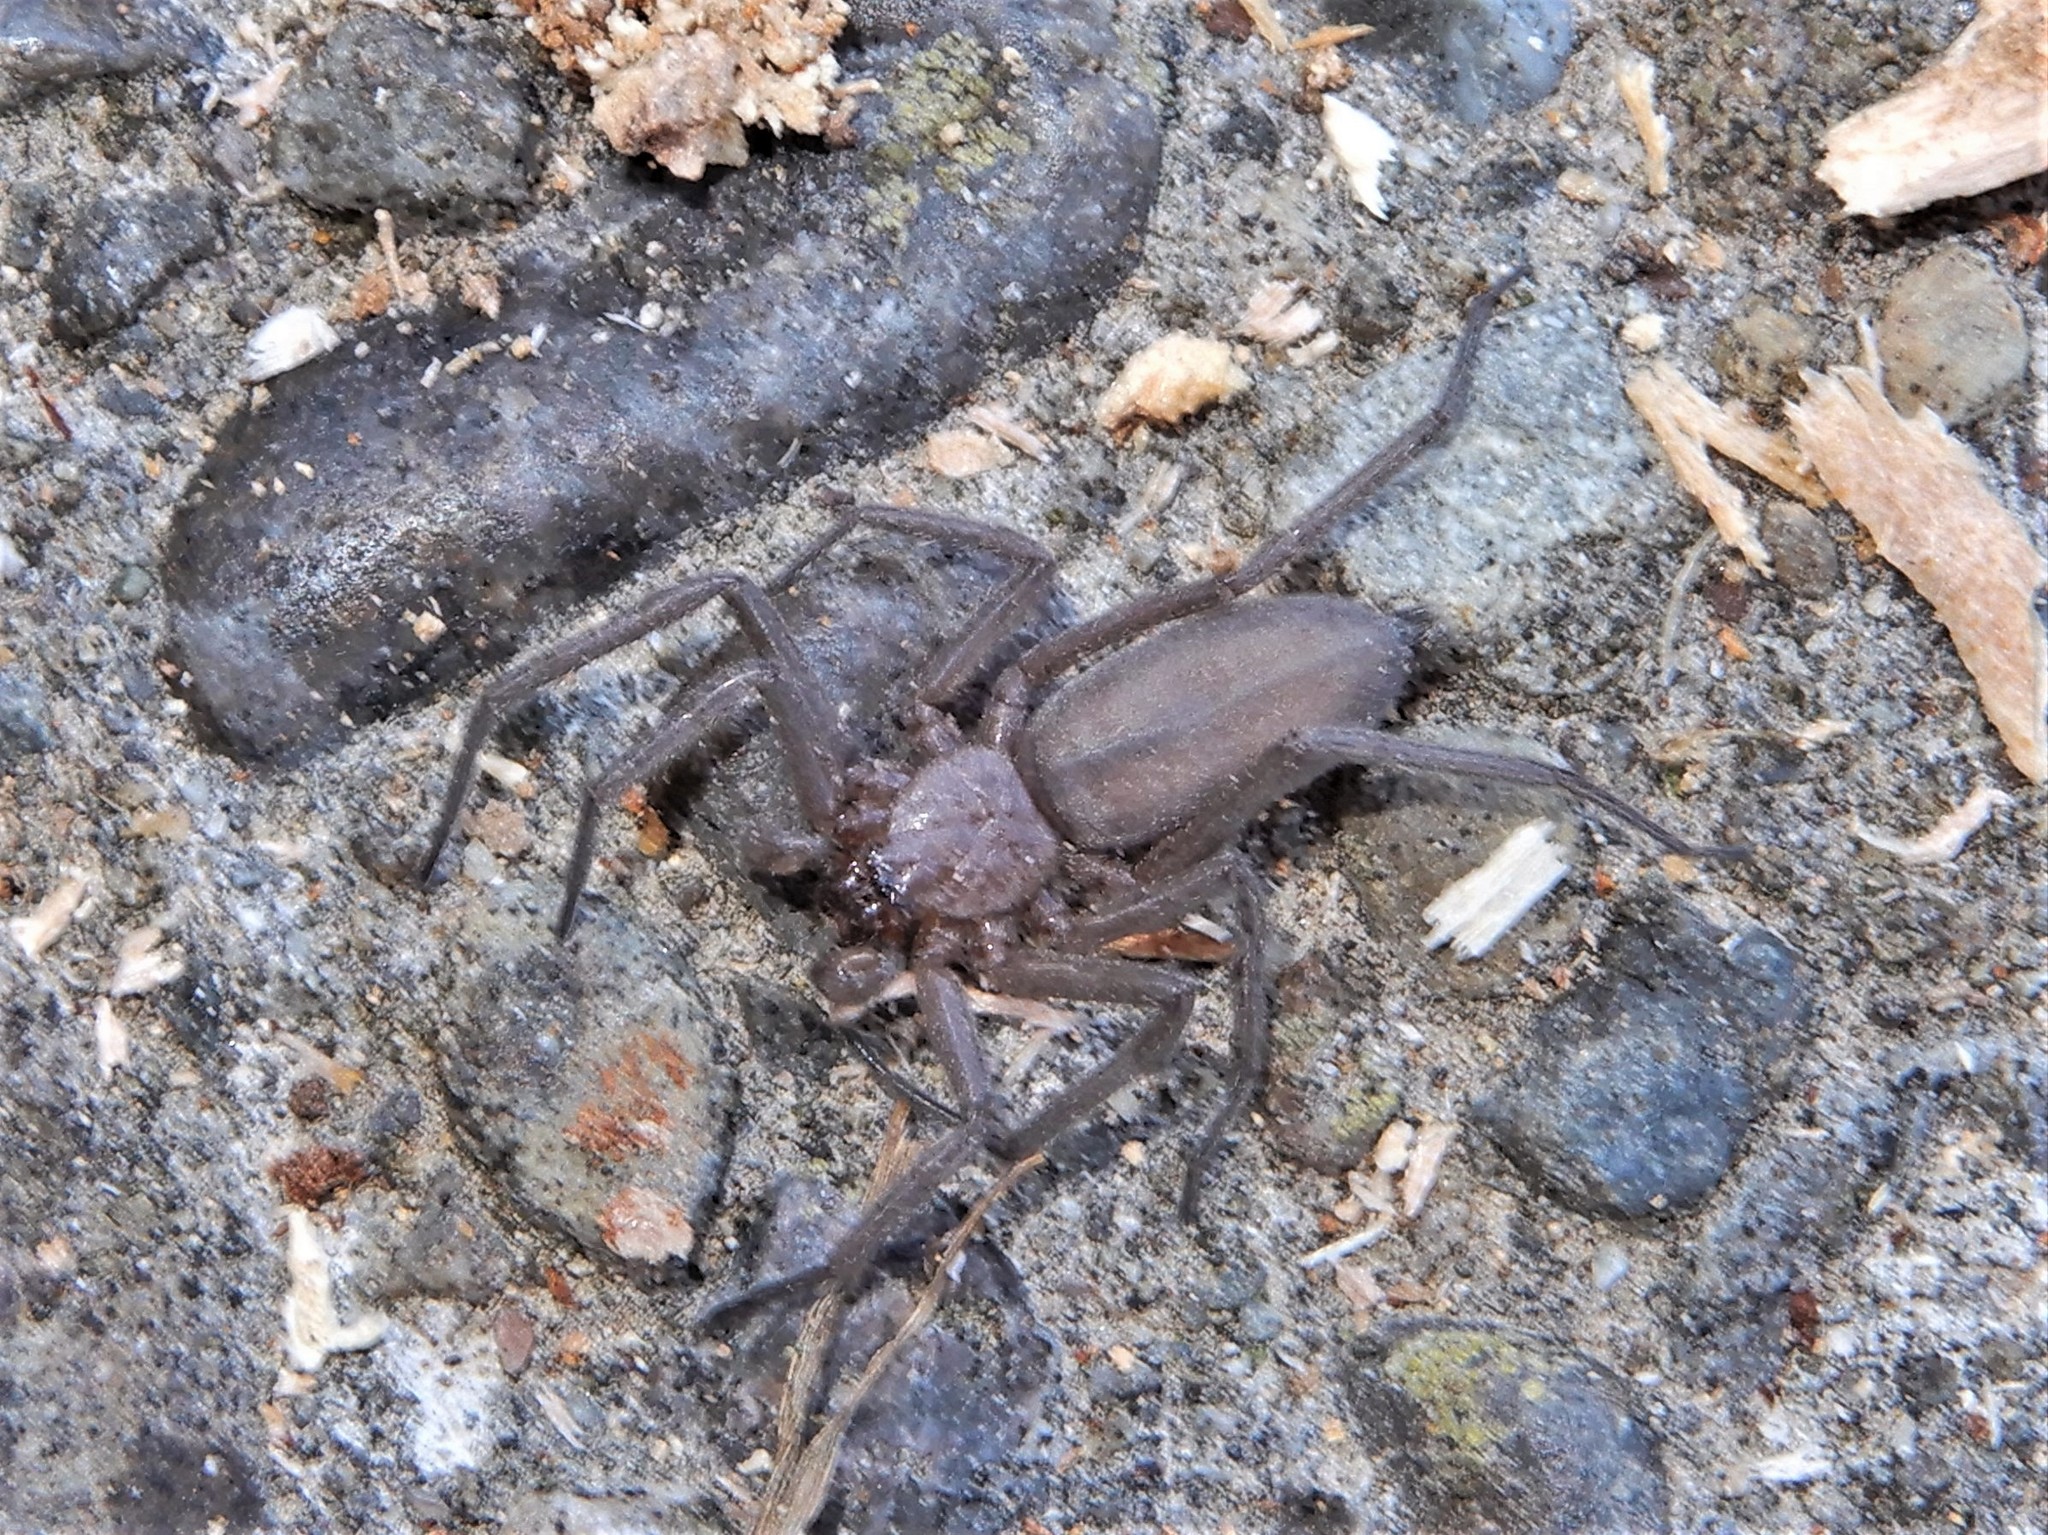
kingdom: Animalia
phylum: Arthropoda
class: Arachnida
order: Araneae
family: Trochanteriidae
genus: Hemicloea
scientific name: Hemicloea rogenhoferi
